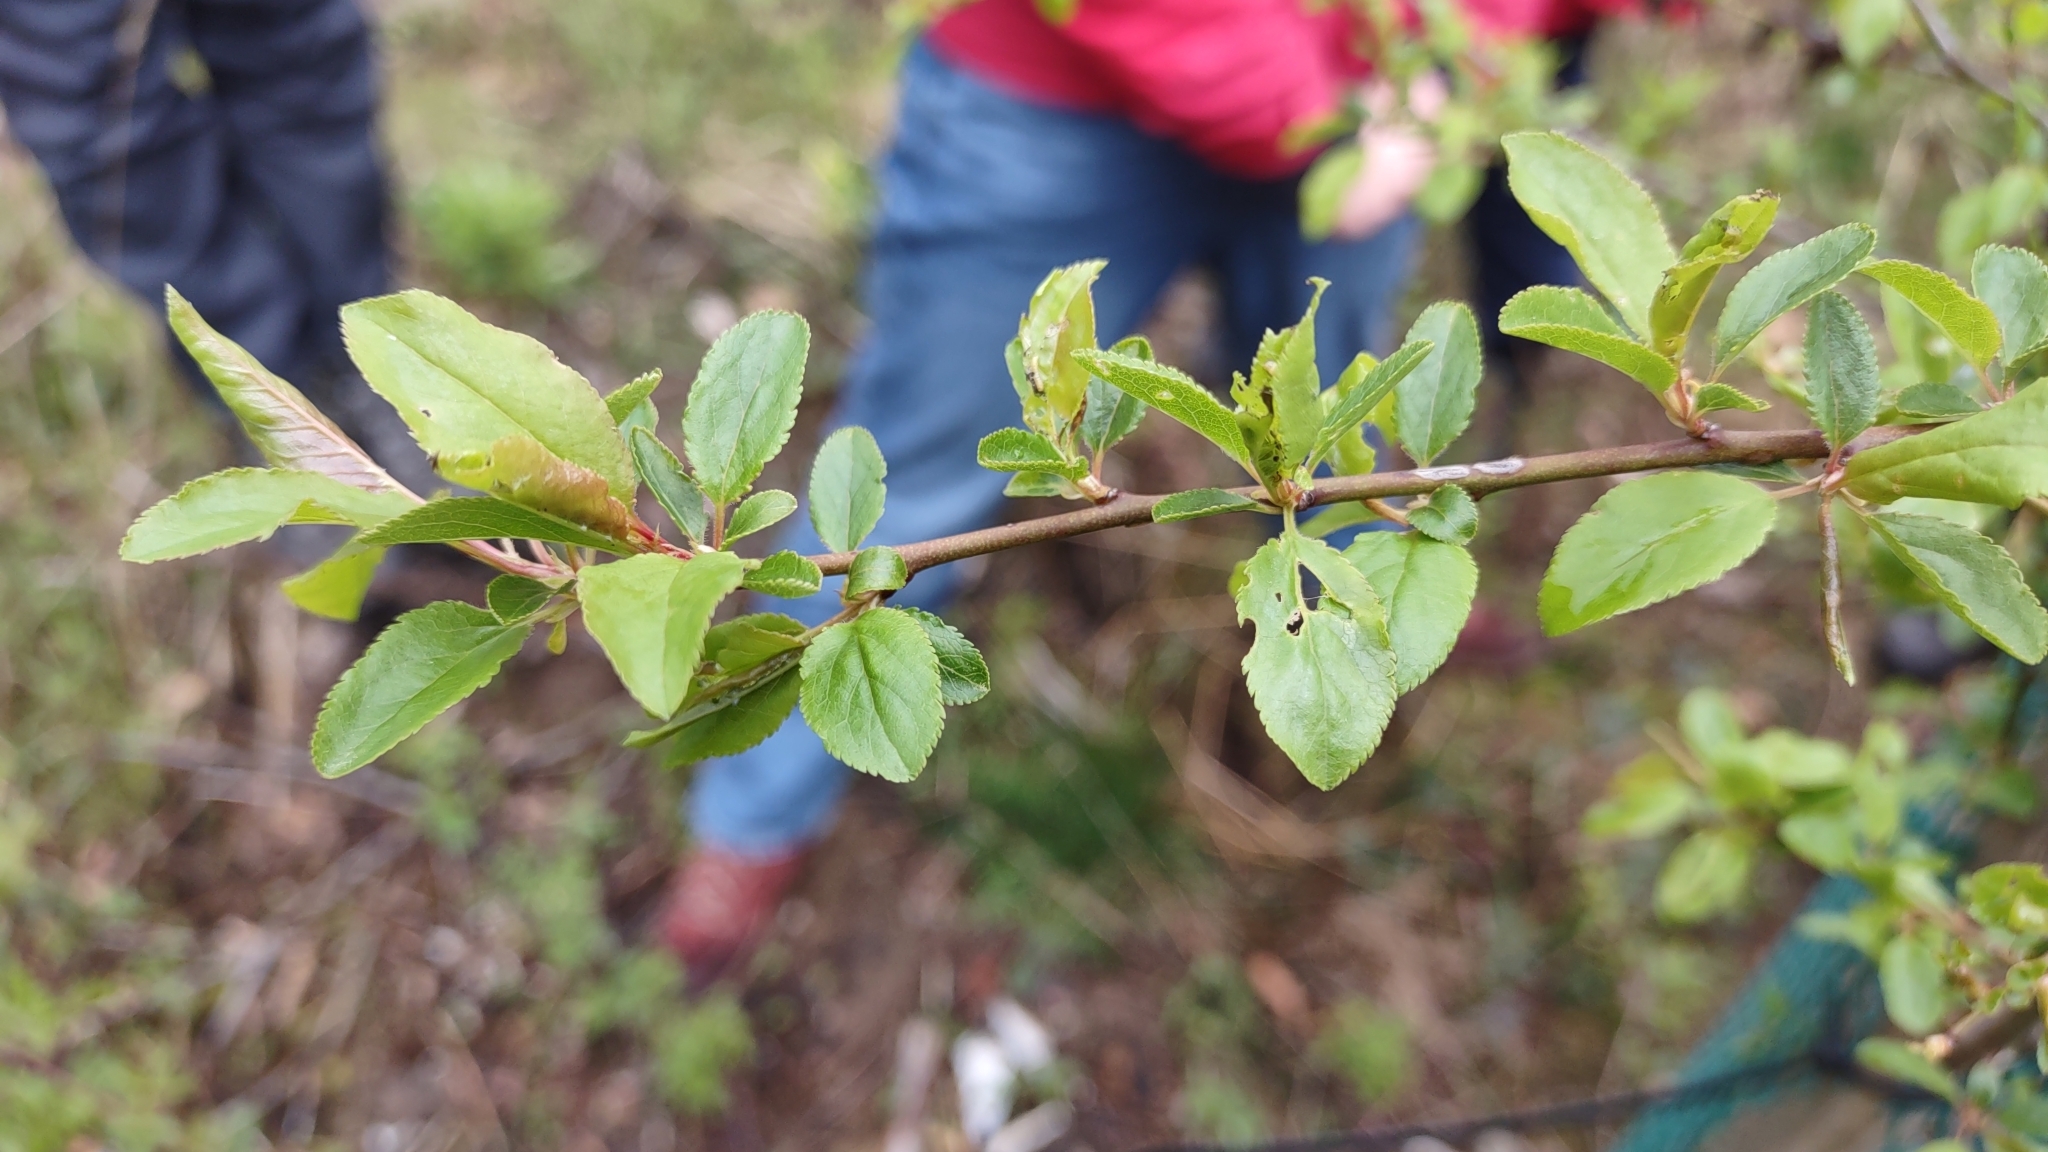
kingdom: Plantae
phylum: Tracheophyta
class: Magnoliopsida
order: Rosales
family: Rosaceae
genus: Prunus
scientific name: Prunus spinosa
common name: Blackthorn
